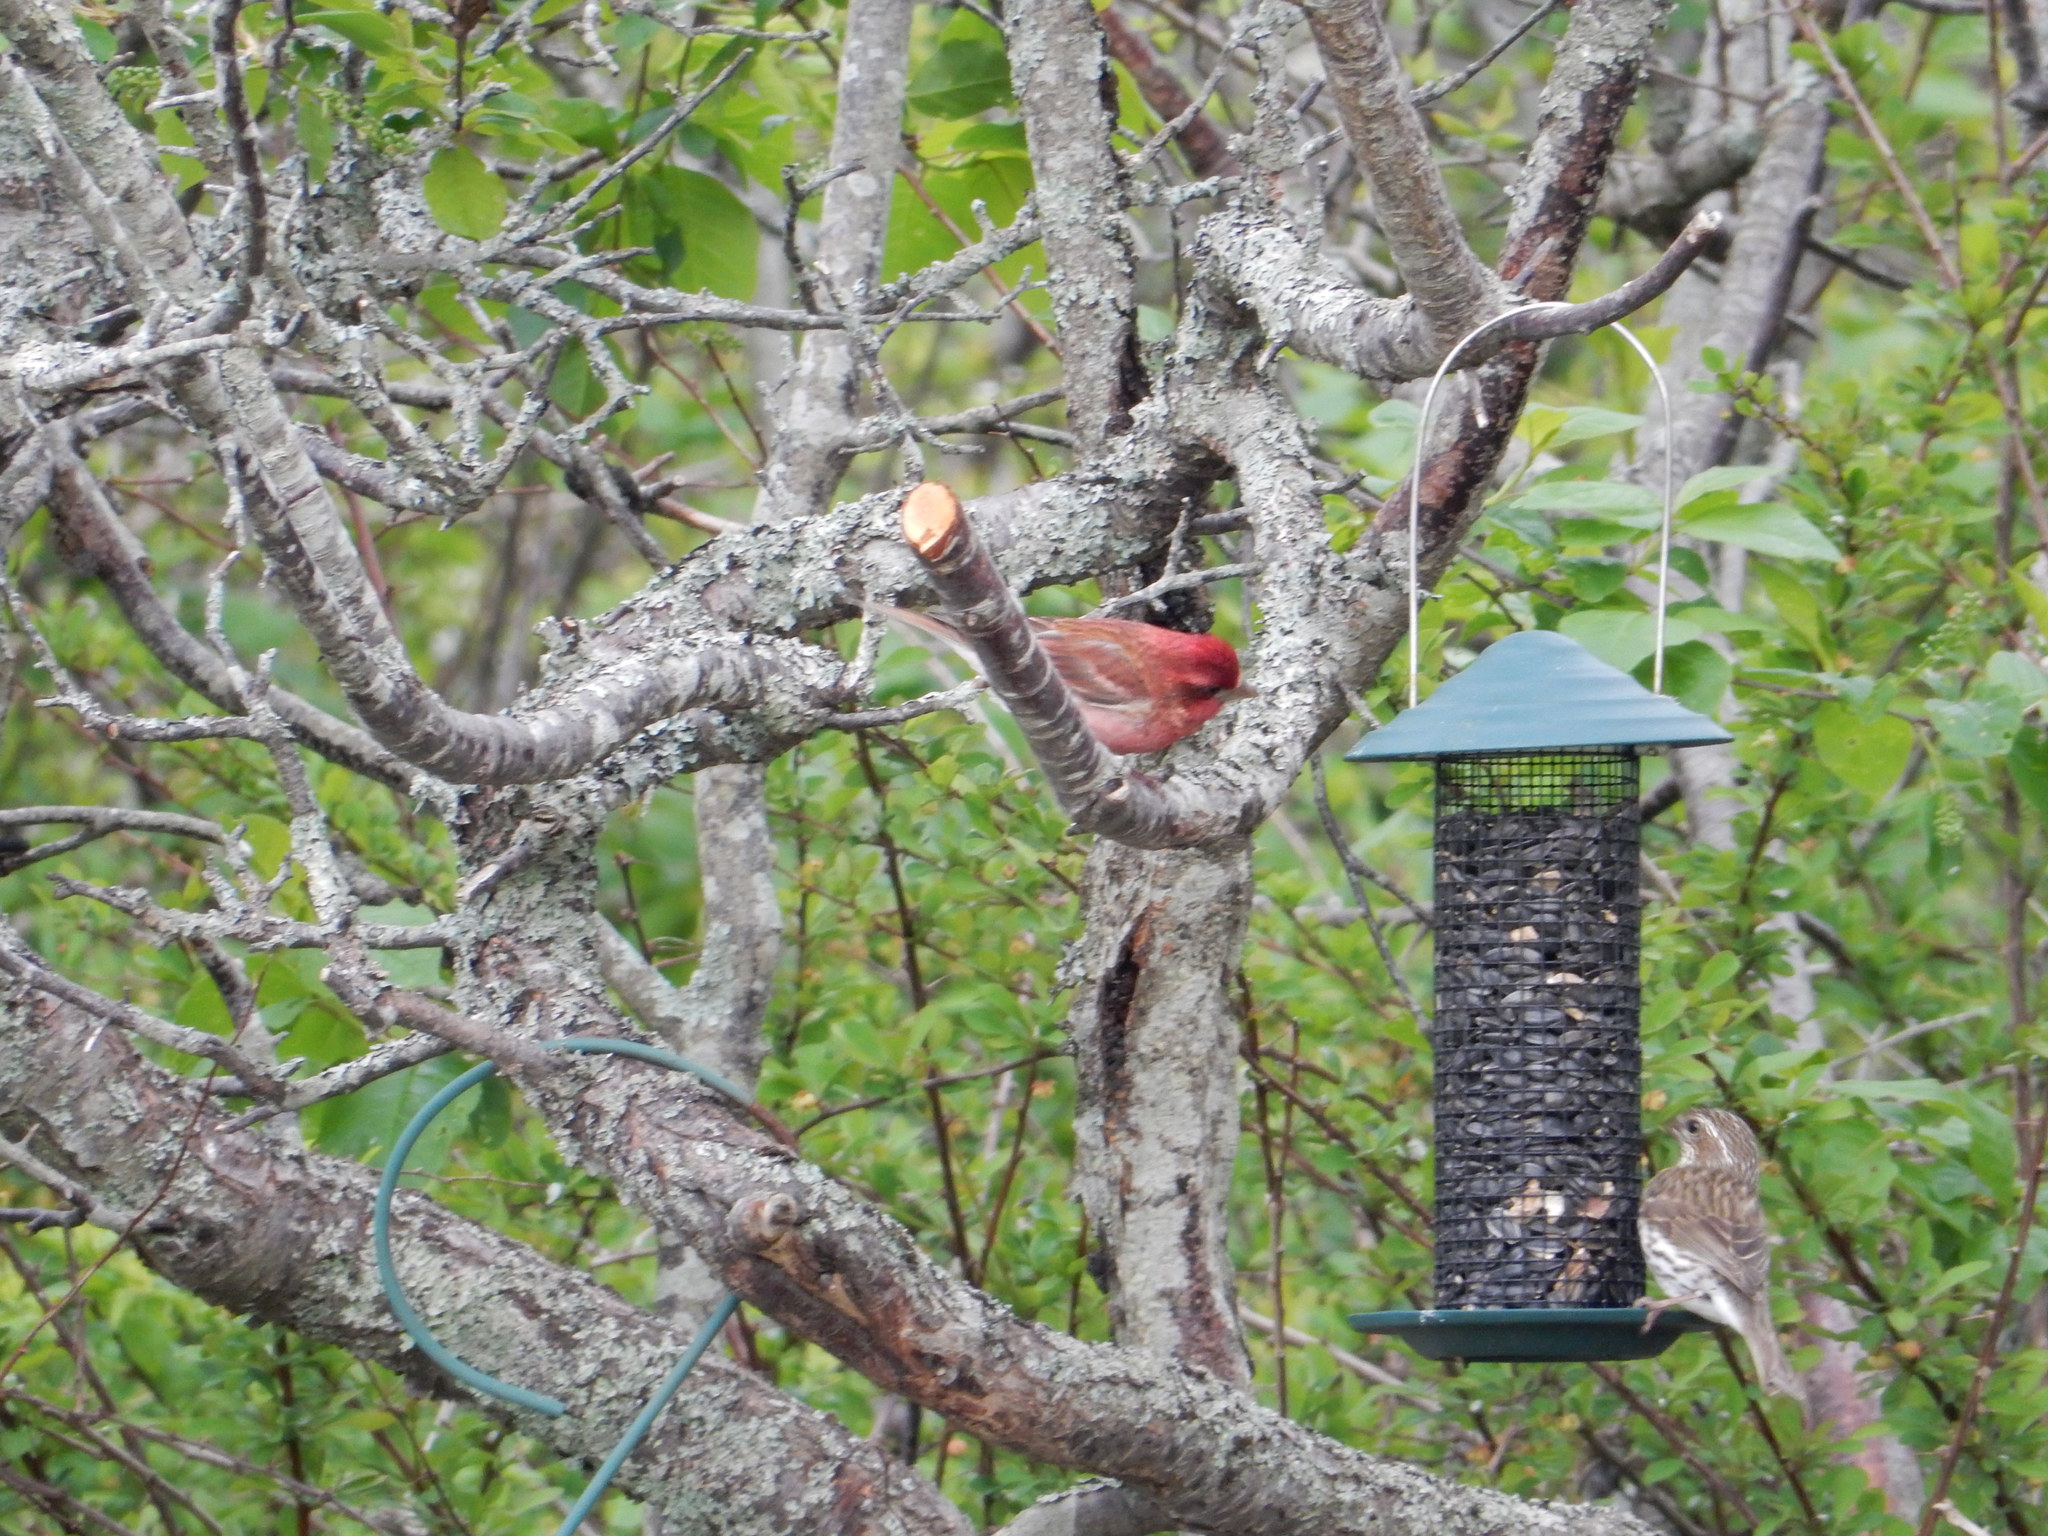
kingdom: Animalia
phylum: Chordata
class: Aves
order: Passeriformes
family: Fringillidae
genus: Haemorhous
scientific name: Haemorhous purpureus
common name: Purple finch
